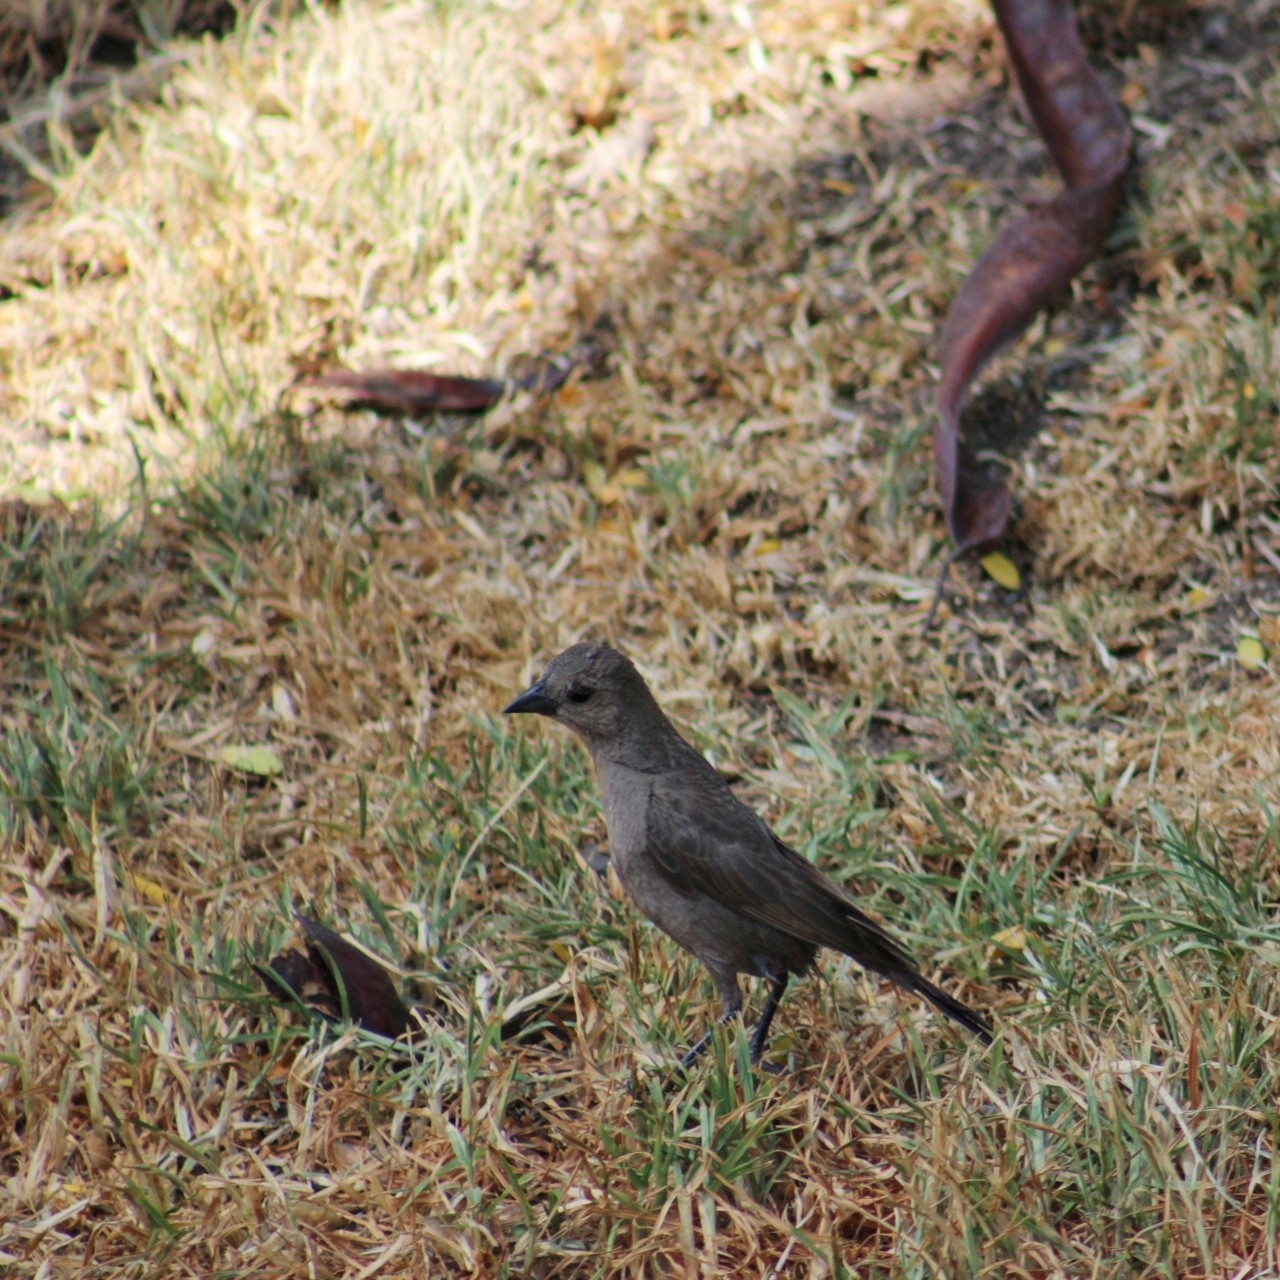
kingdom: Animalia
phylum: Chordata
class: Aves
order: Passeriformes
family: Icteridae
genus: Molothrus
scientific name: Molothrus bonariensis
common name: Shiny cowbird
